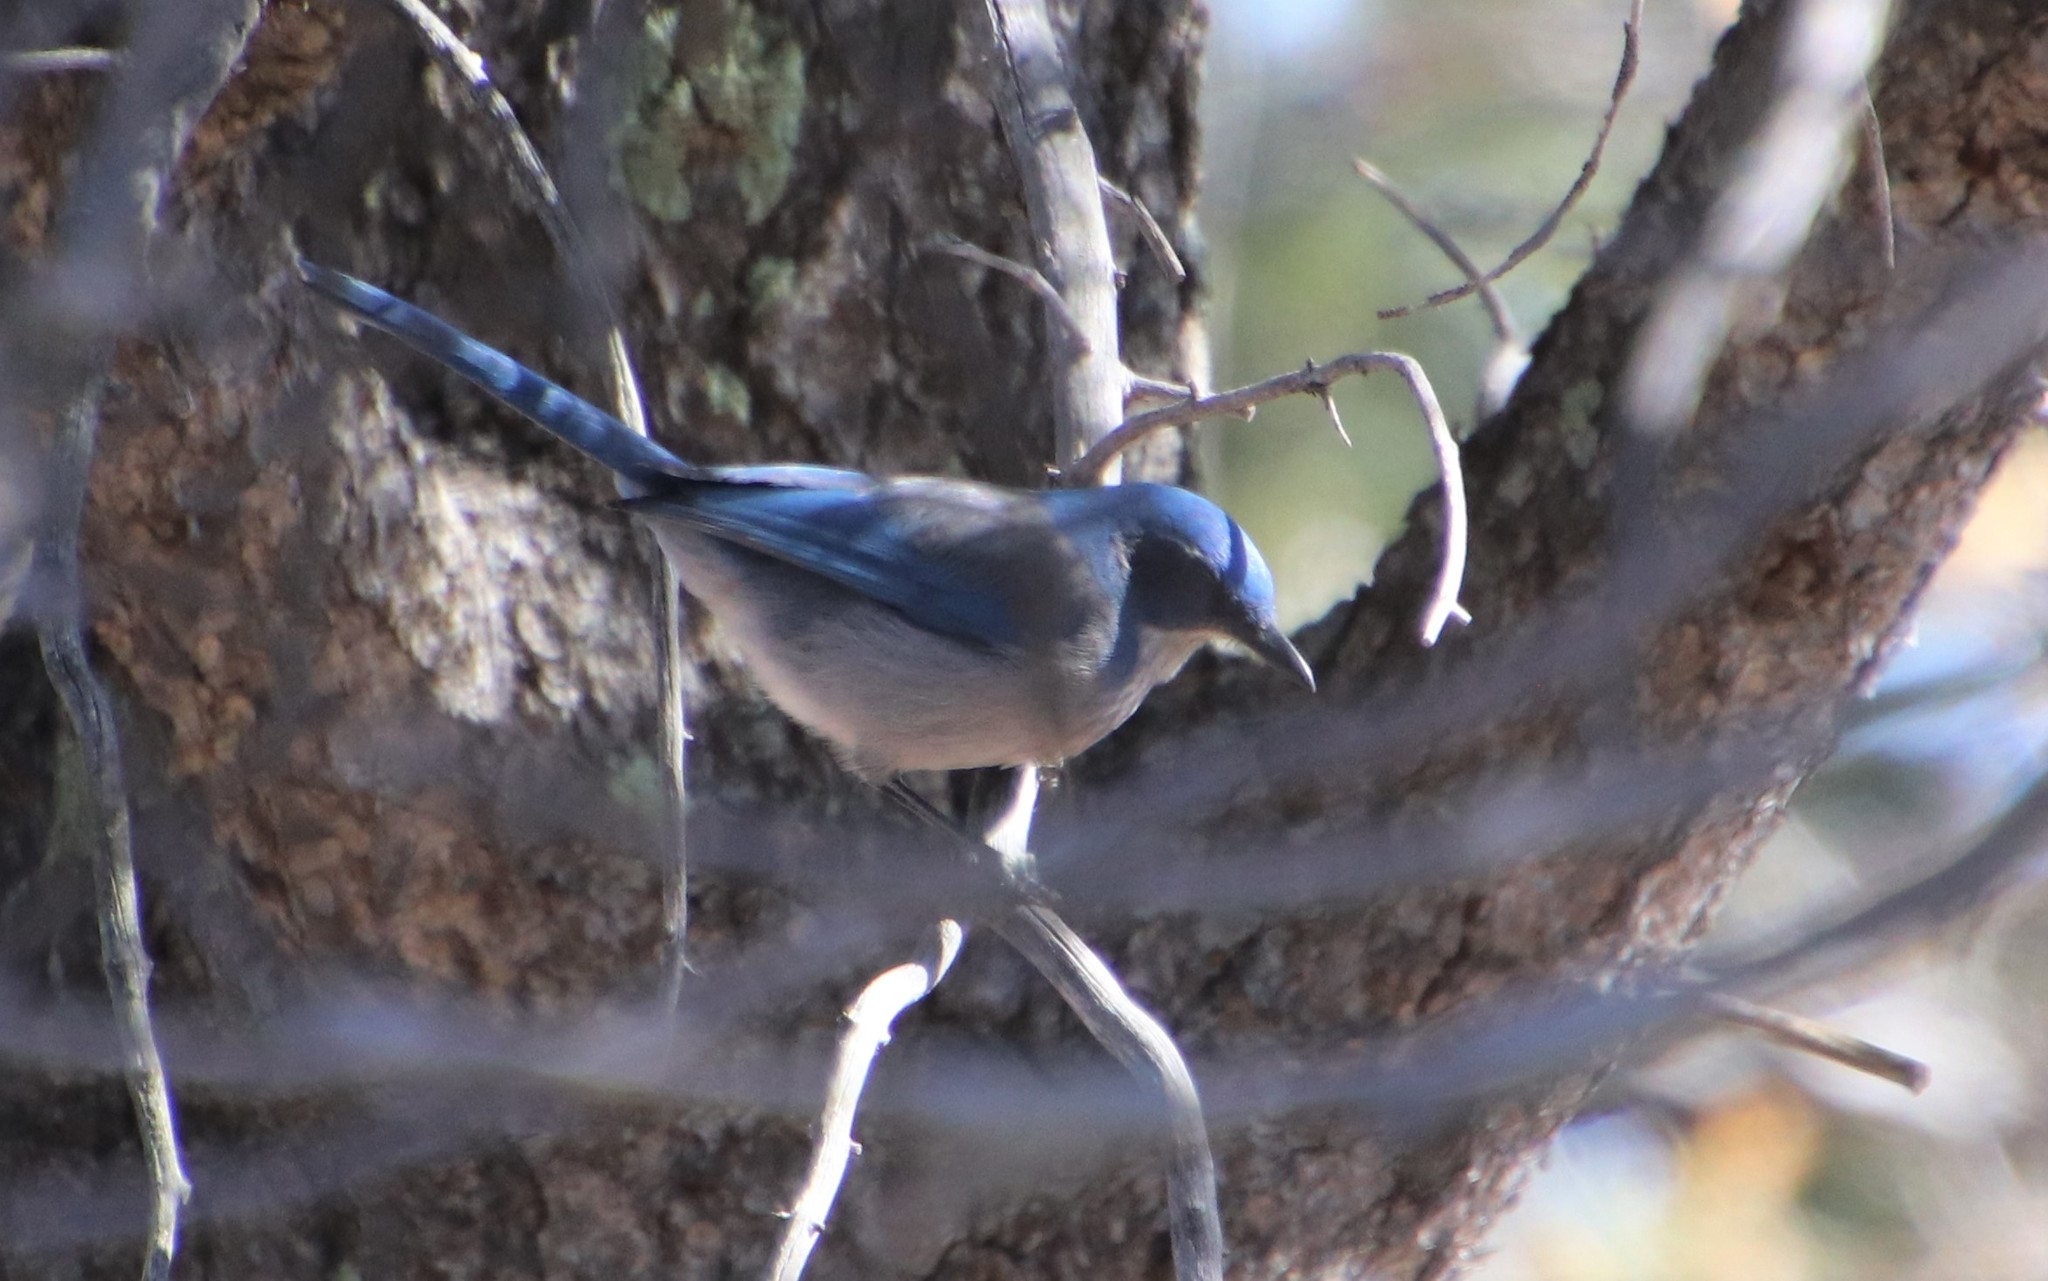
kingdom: Animalia
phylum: Chordata
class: Aves
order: Passeriformes
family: Corvidae
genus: Aphelocoma
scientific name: Aphelocoma woodhouseii
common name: Woodhouse's scrub-jay
